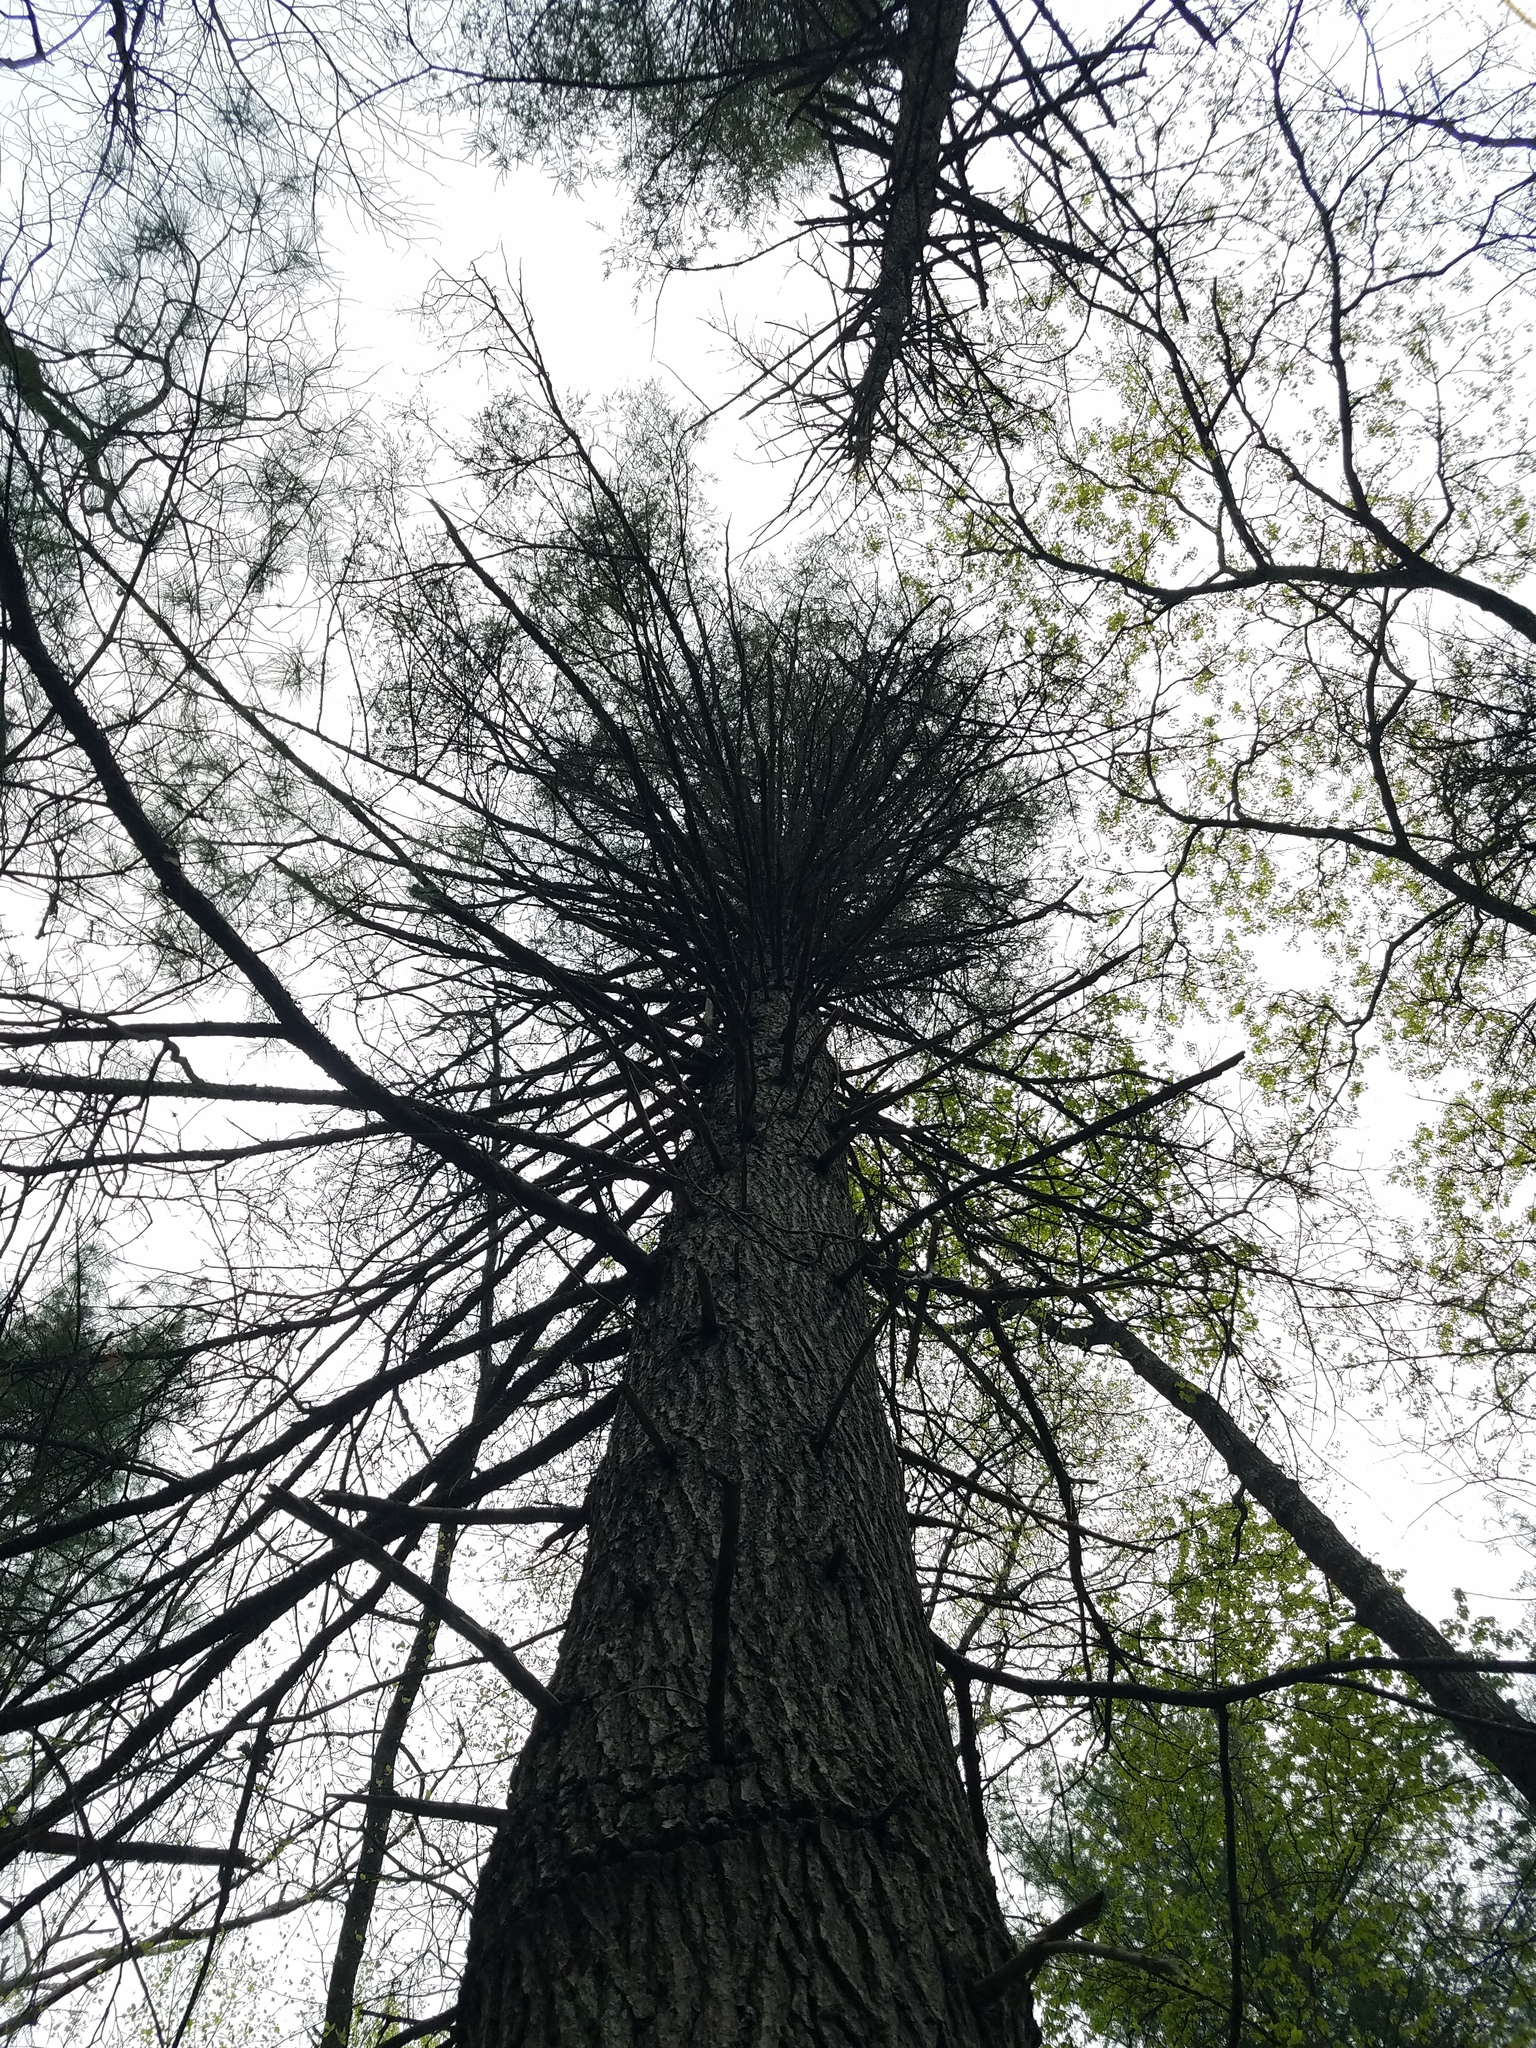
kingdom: Plantae
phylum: Tracheophyta
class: Pinopsida
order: Pinales
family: Pinaceae
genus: Tsuga
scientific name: Tsuga canadensis
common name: Eastern hemlock
